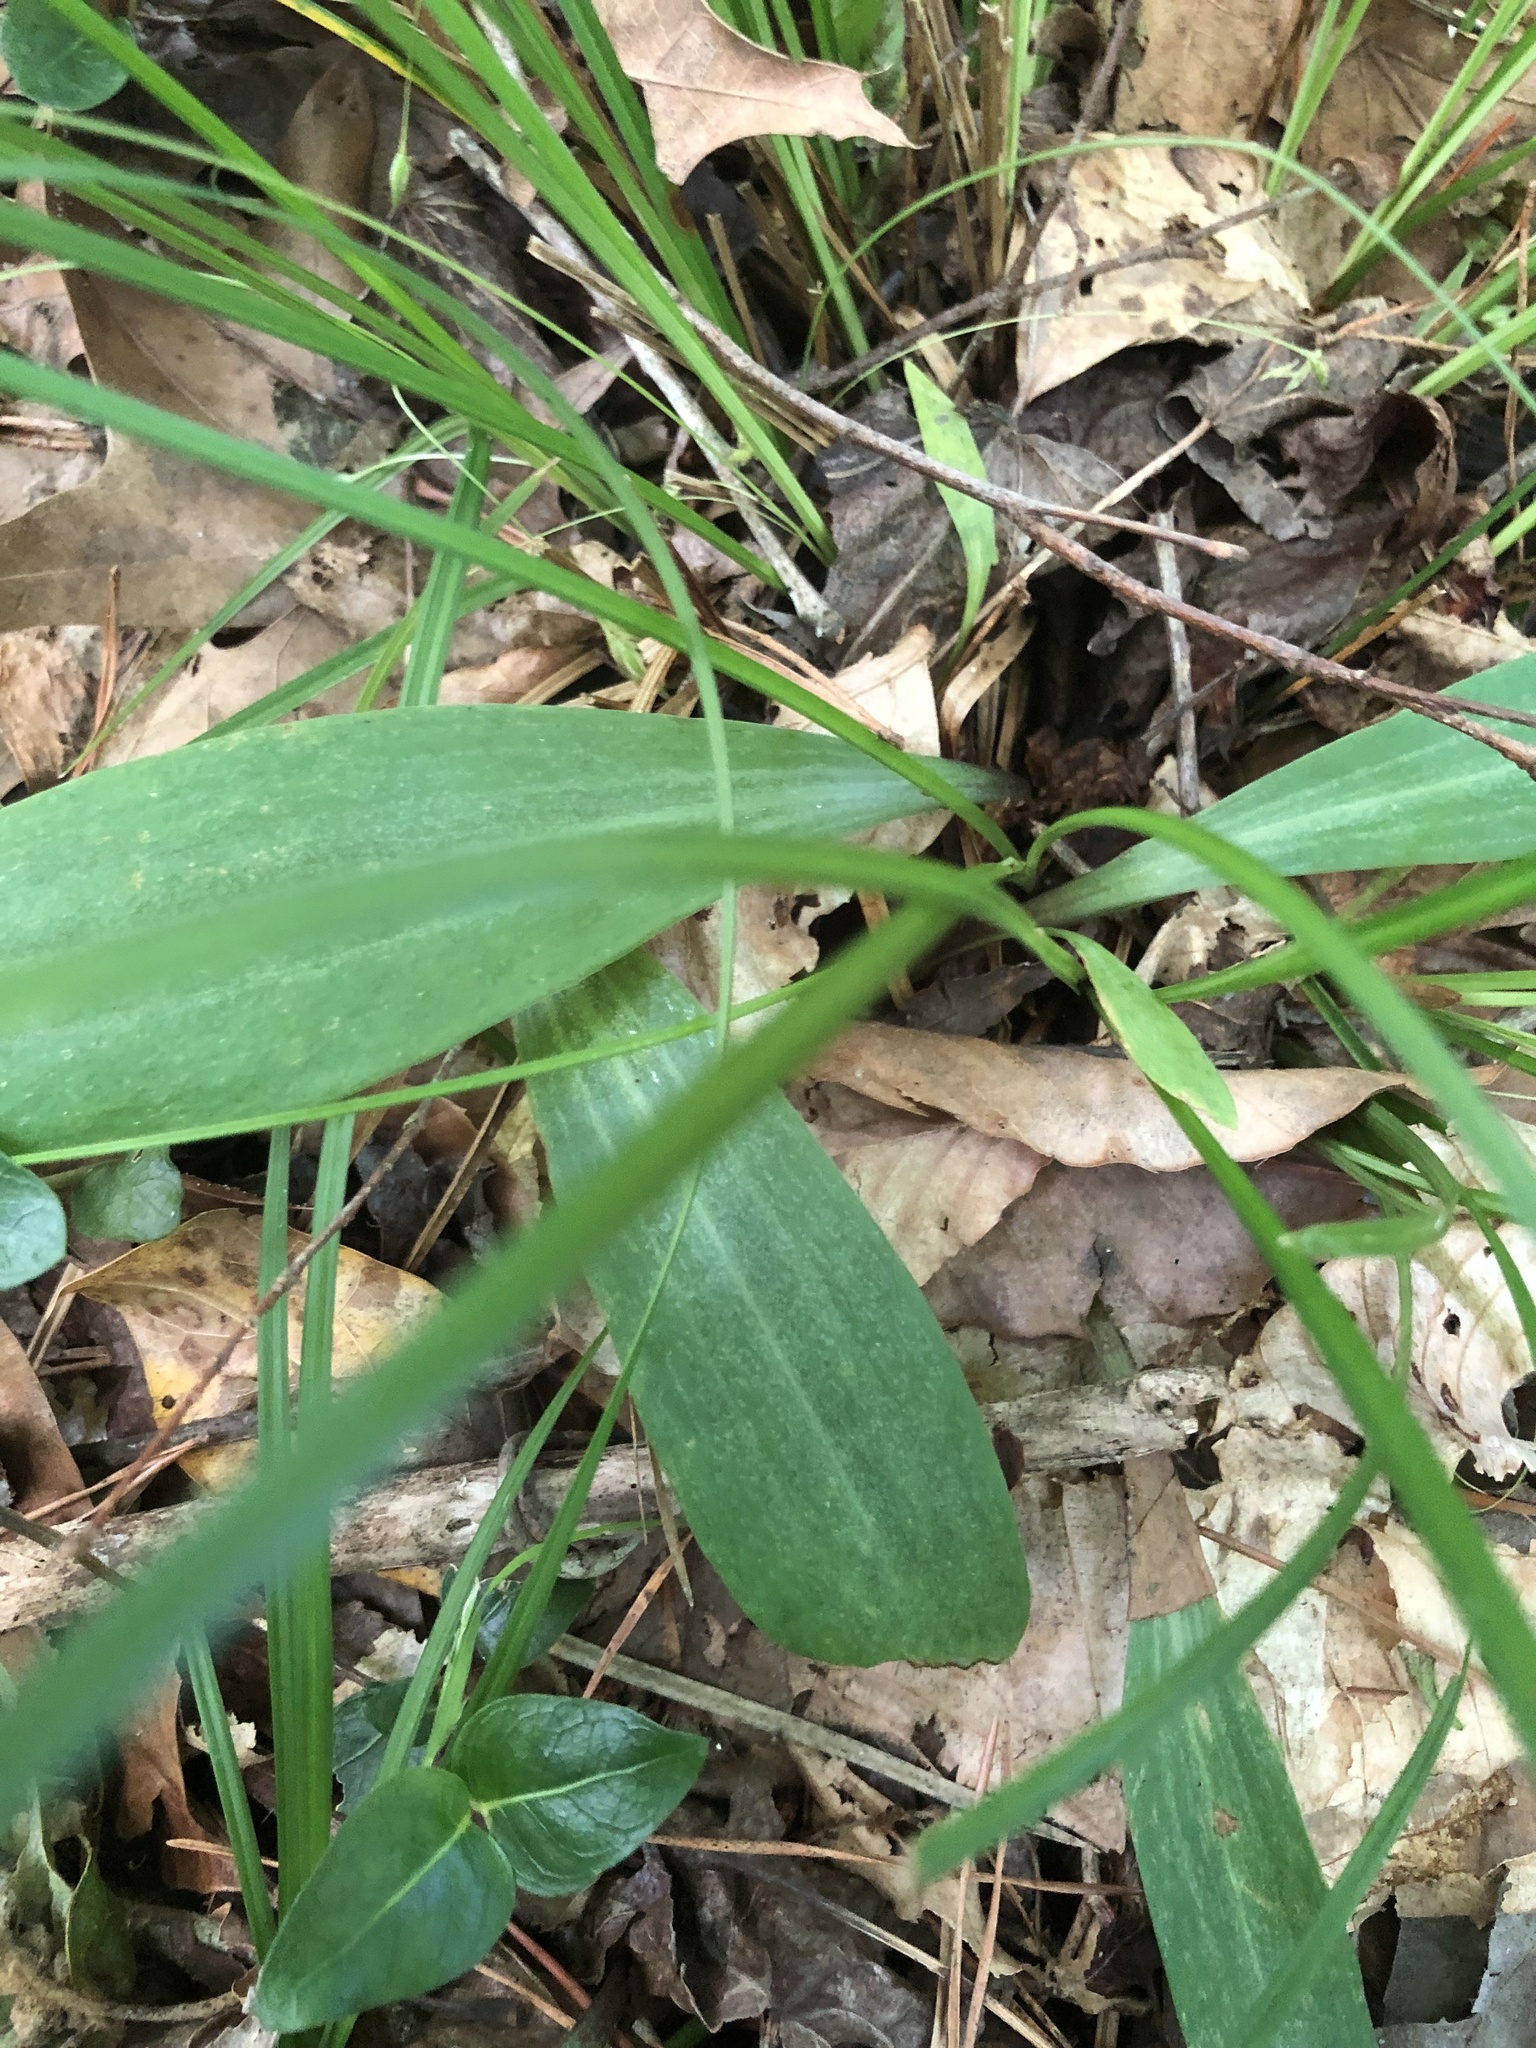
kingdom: Plantae
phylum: Tracheophyta
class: Liliopsida
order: Liliales
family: Liliaceae
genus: Lilium
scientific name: Lilium michauxii
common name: Carolina lily
